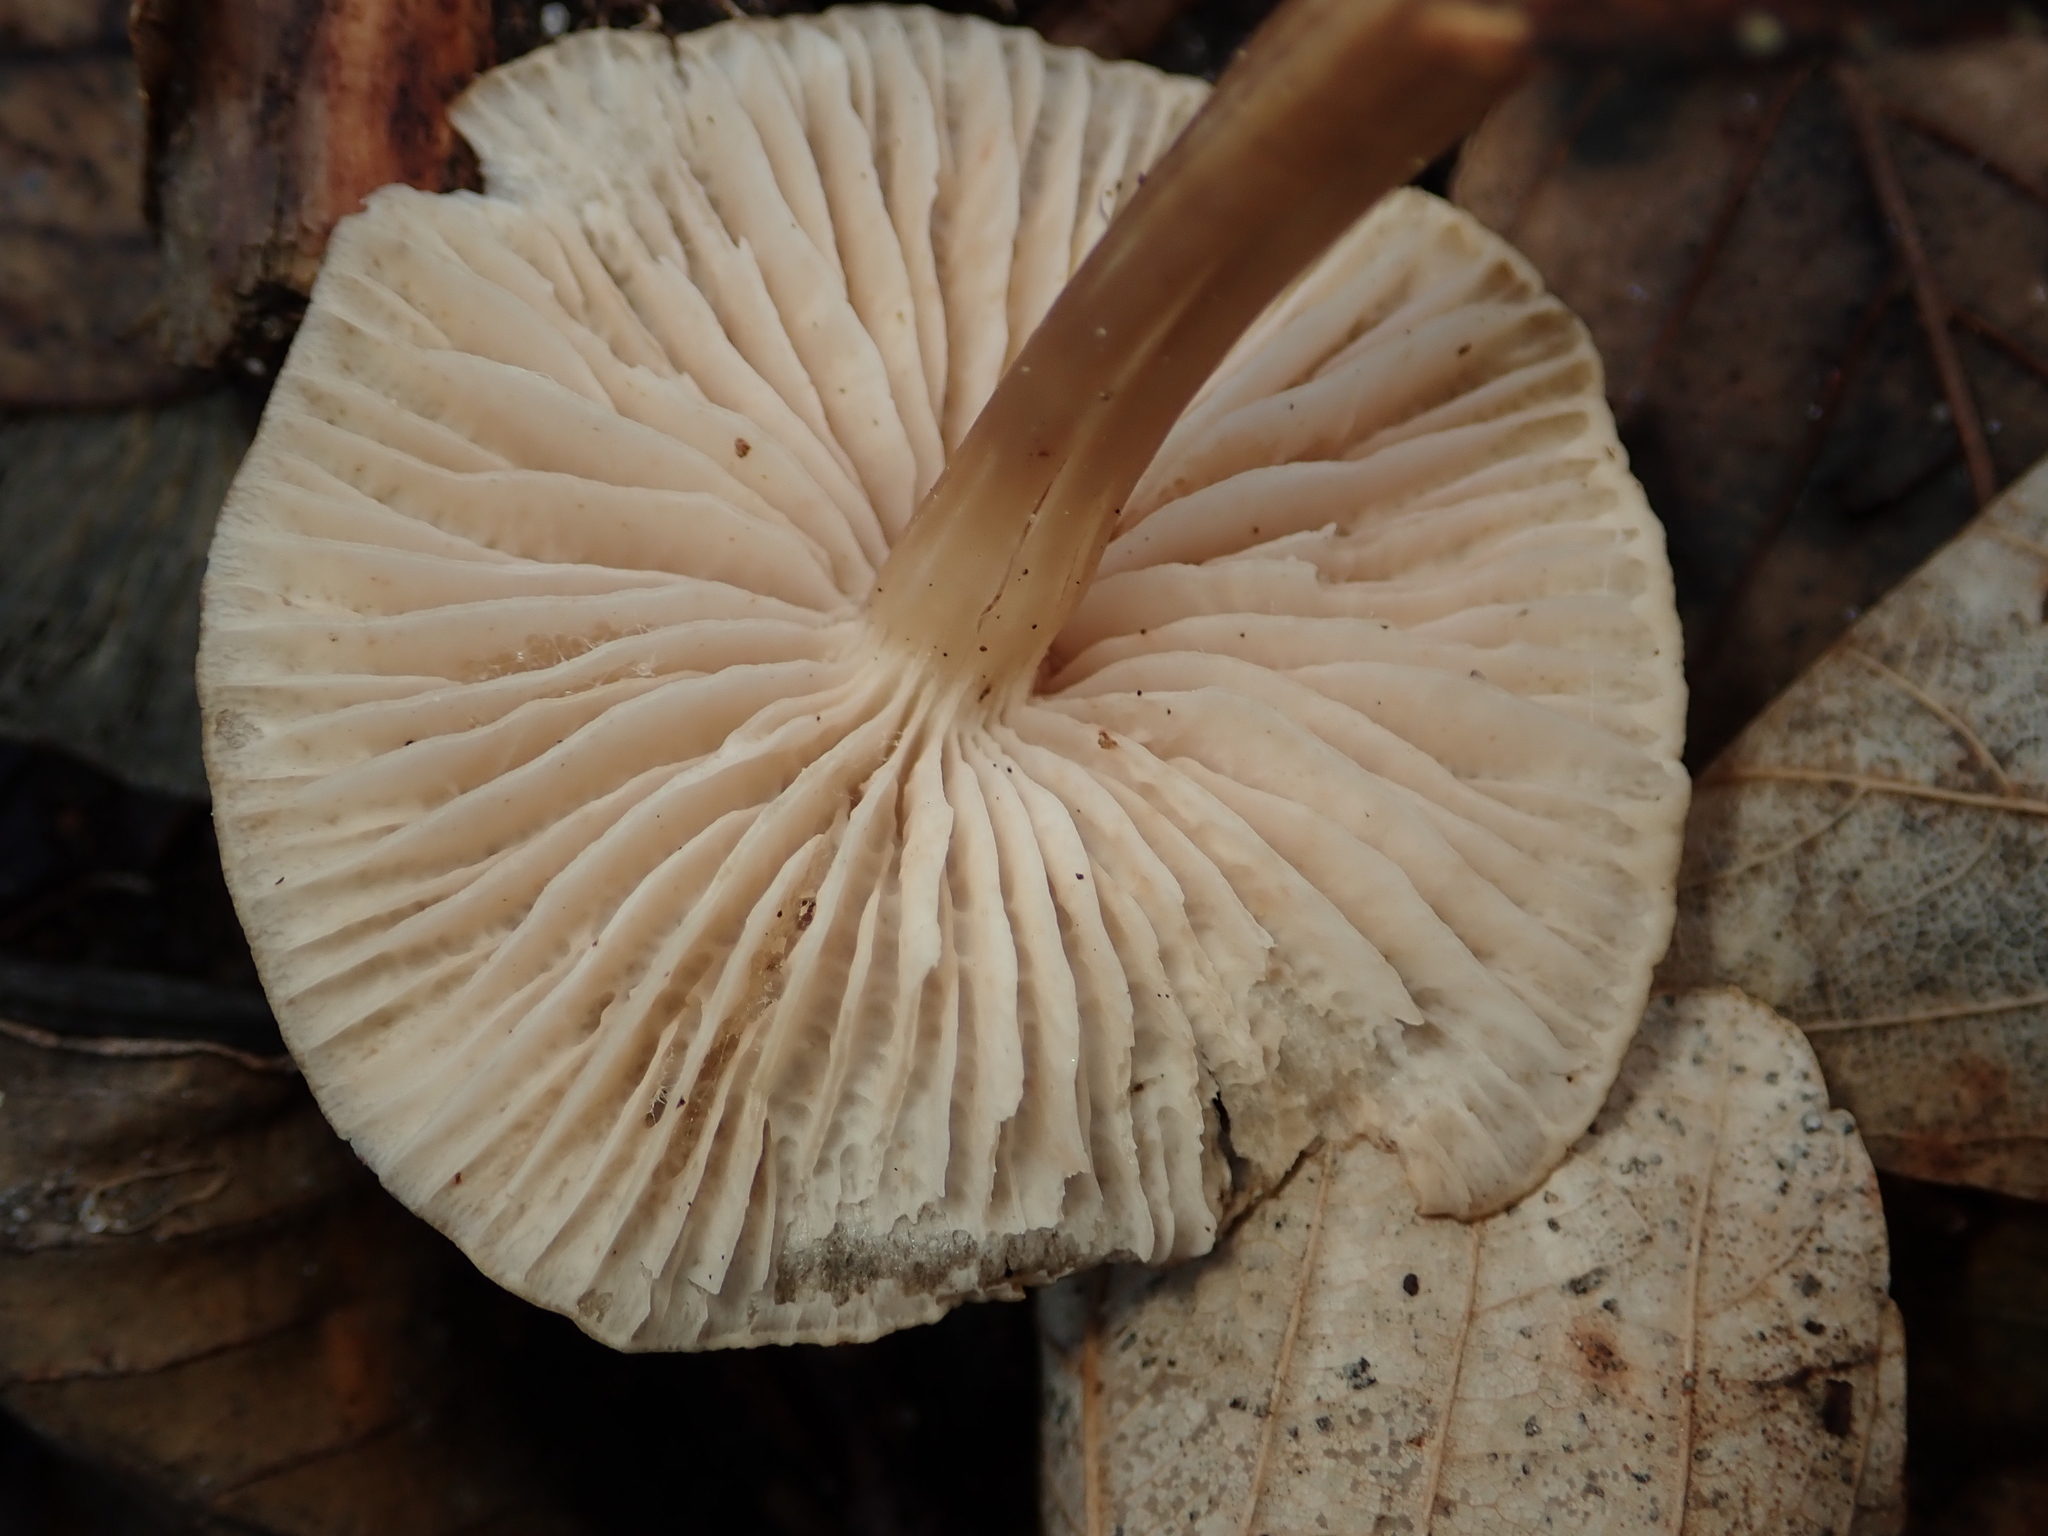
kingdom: Fungi
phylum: Basidiomycota
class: Agaricomycetes
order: Agaricales
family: Mycenaceae
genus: Mycena
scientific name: Mycena galericulata
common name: Bonnet mycena
